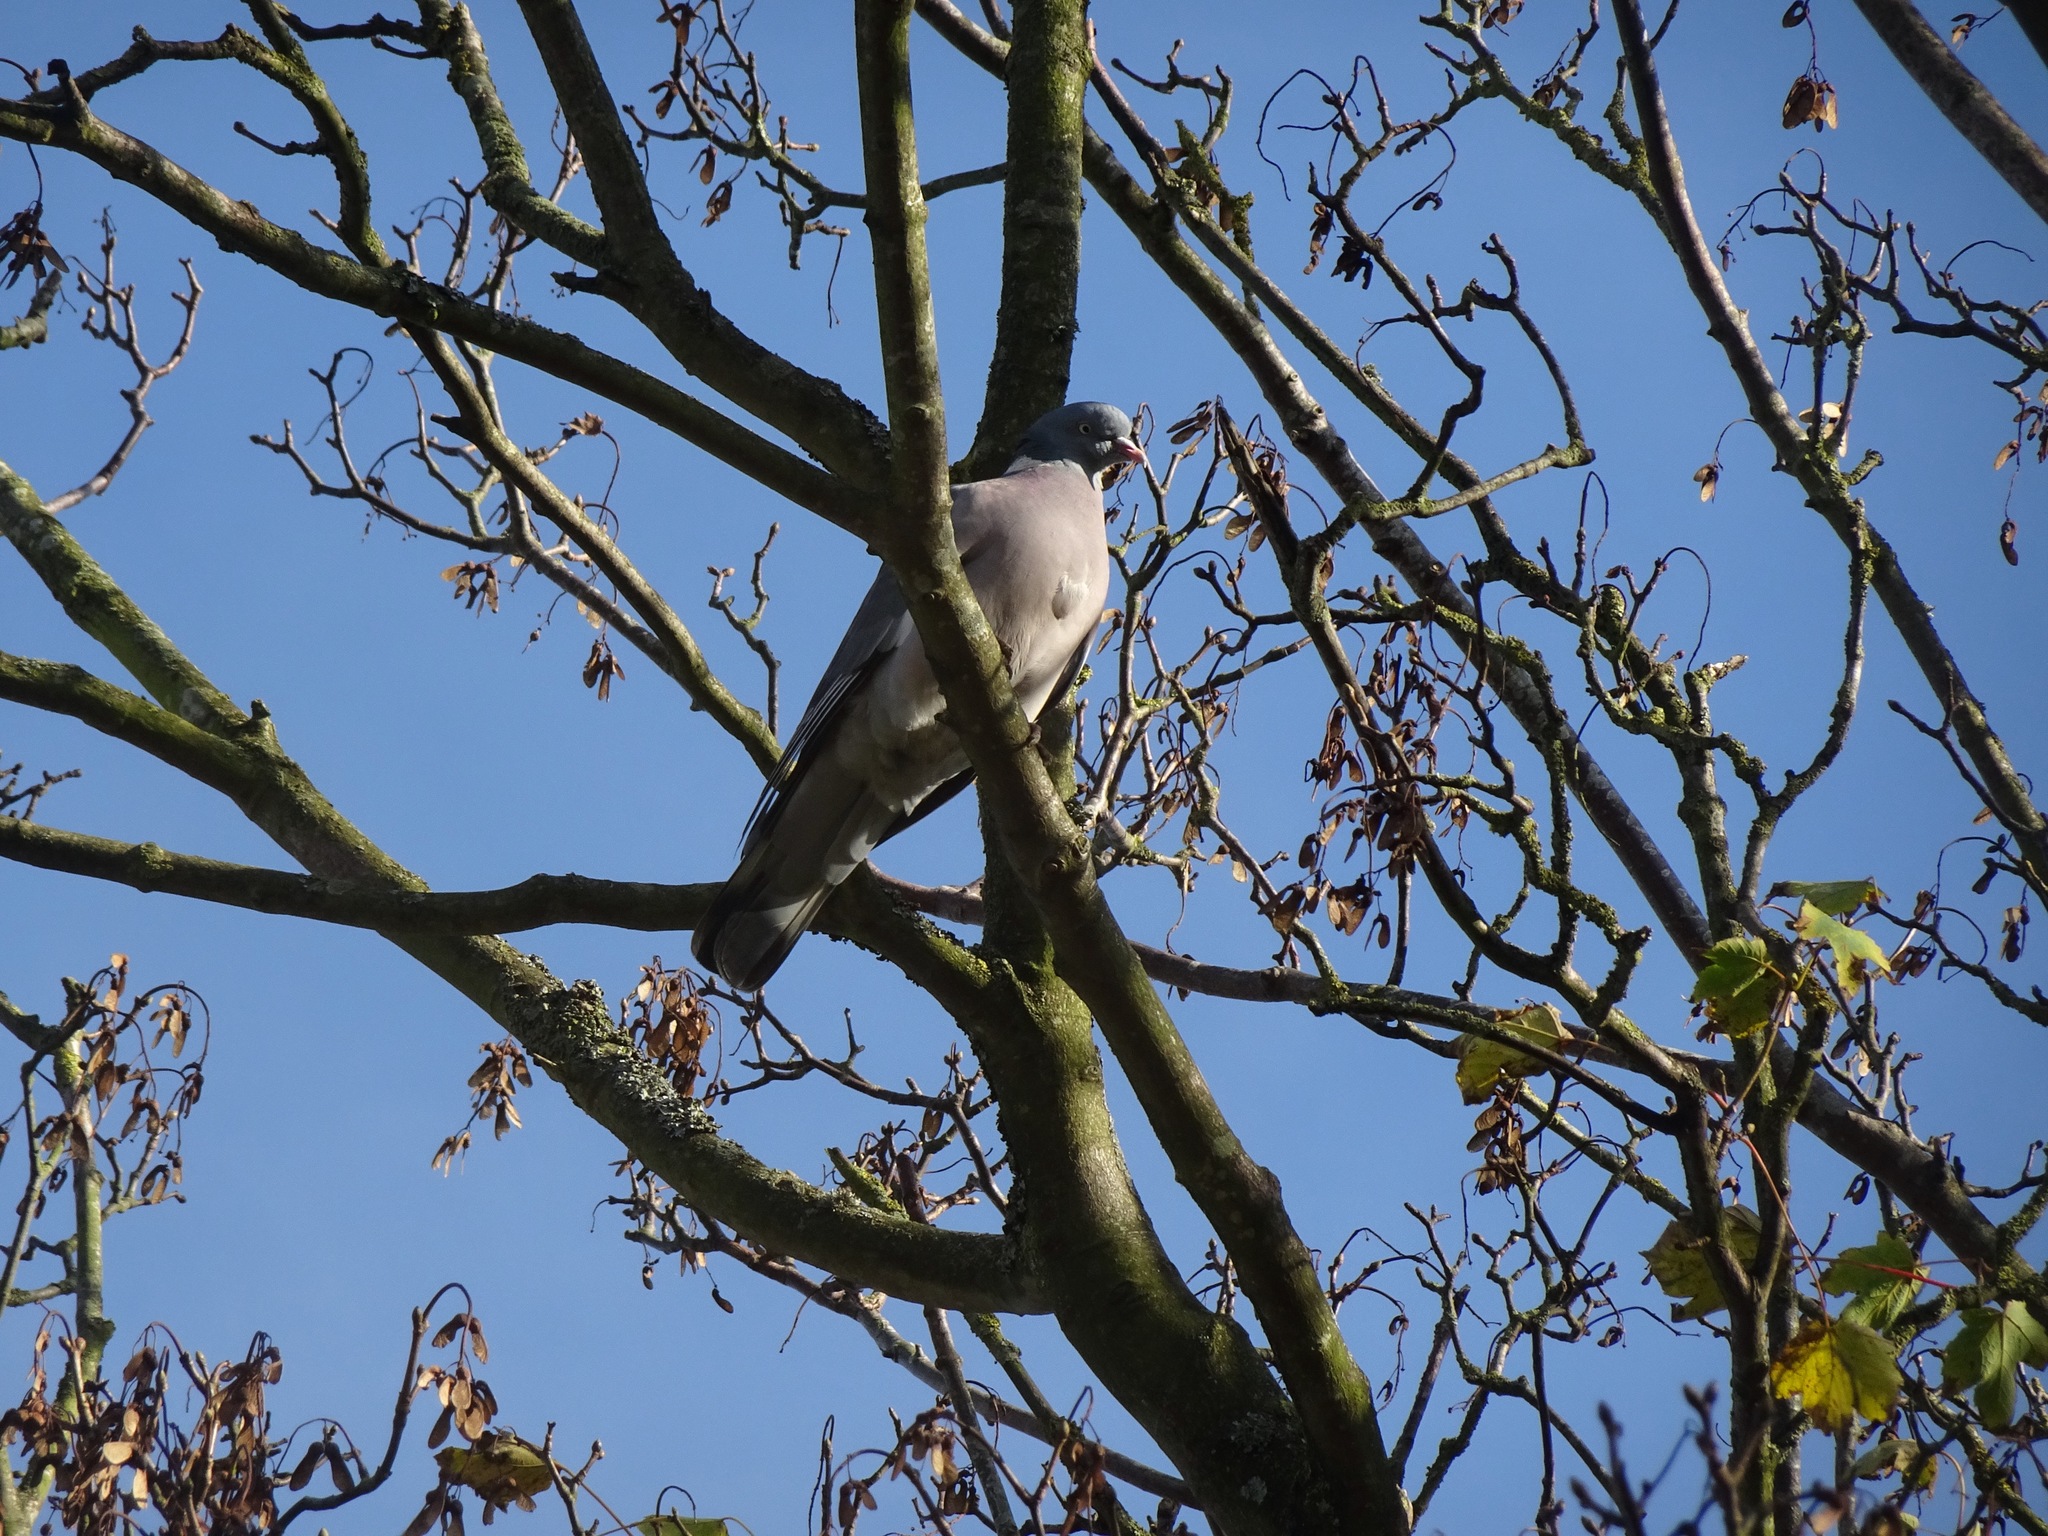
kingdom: Animalia
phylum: Chordata
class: Aves
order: Columbiformes
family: Columbidae
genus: Columba
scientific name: Columba palumbus
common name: Common wood pigeon
